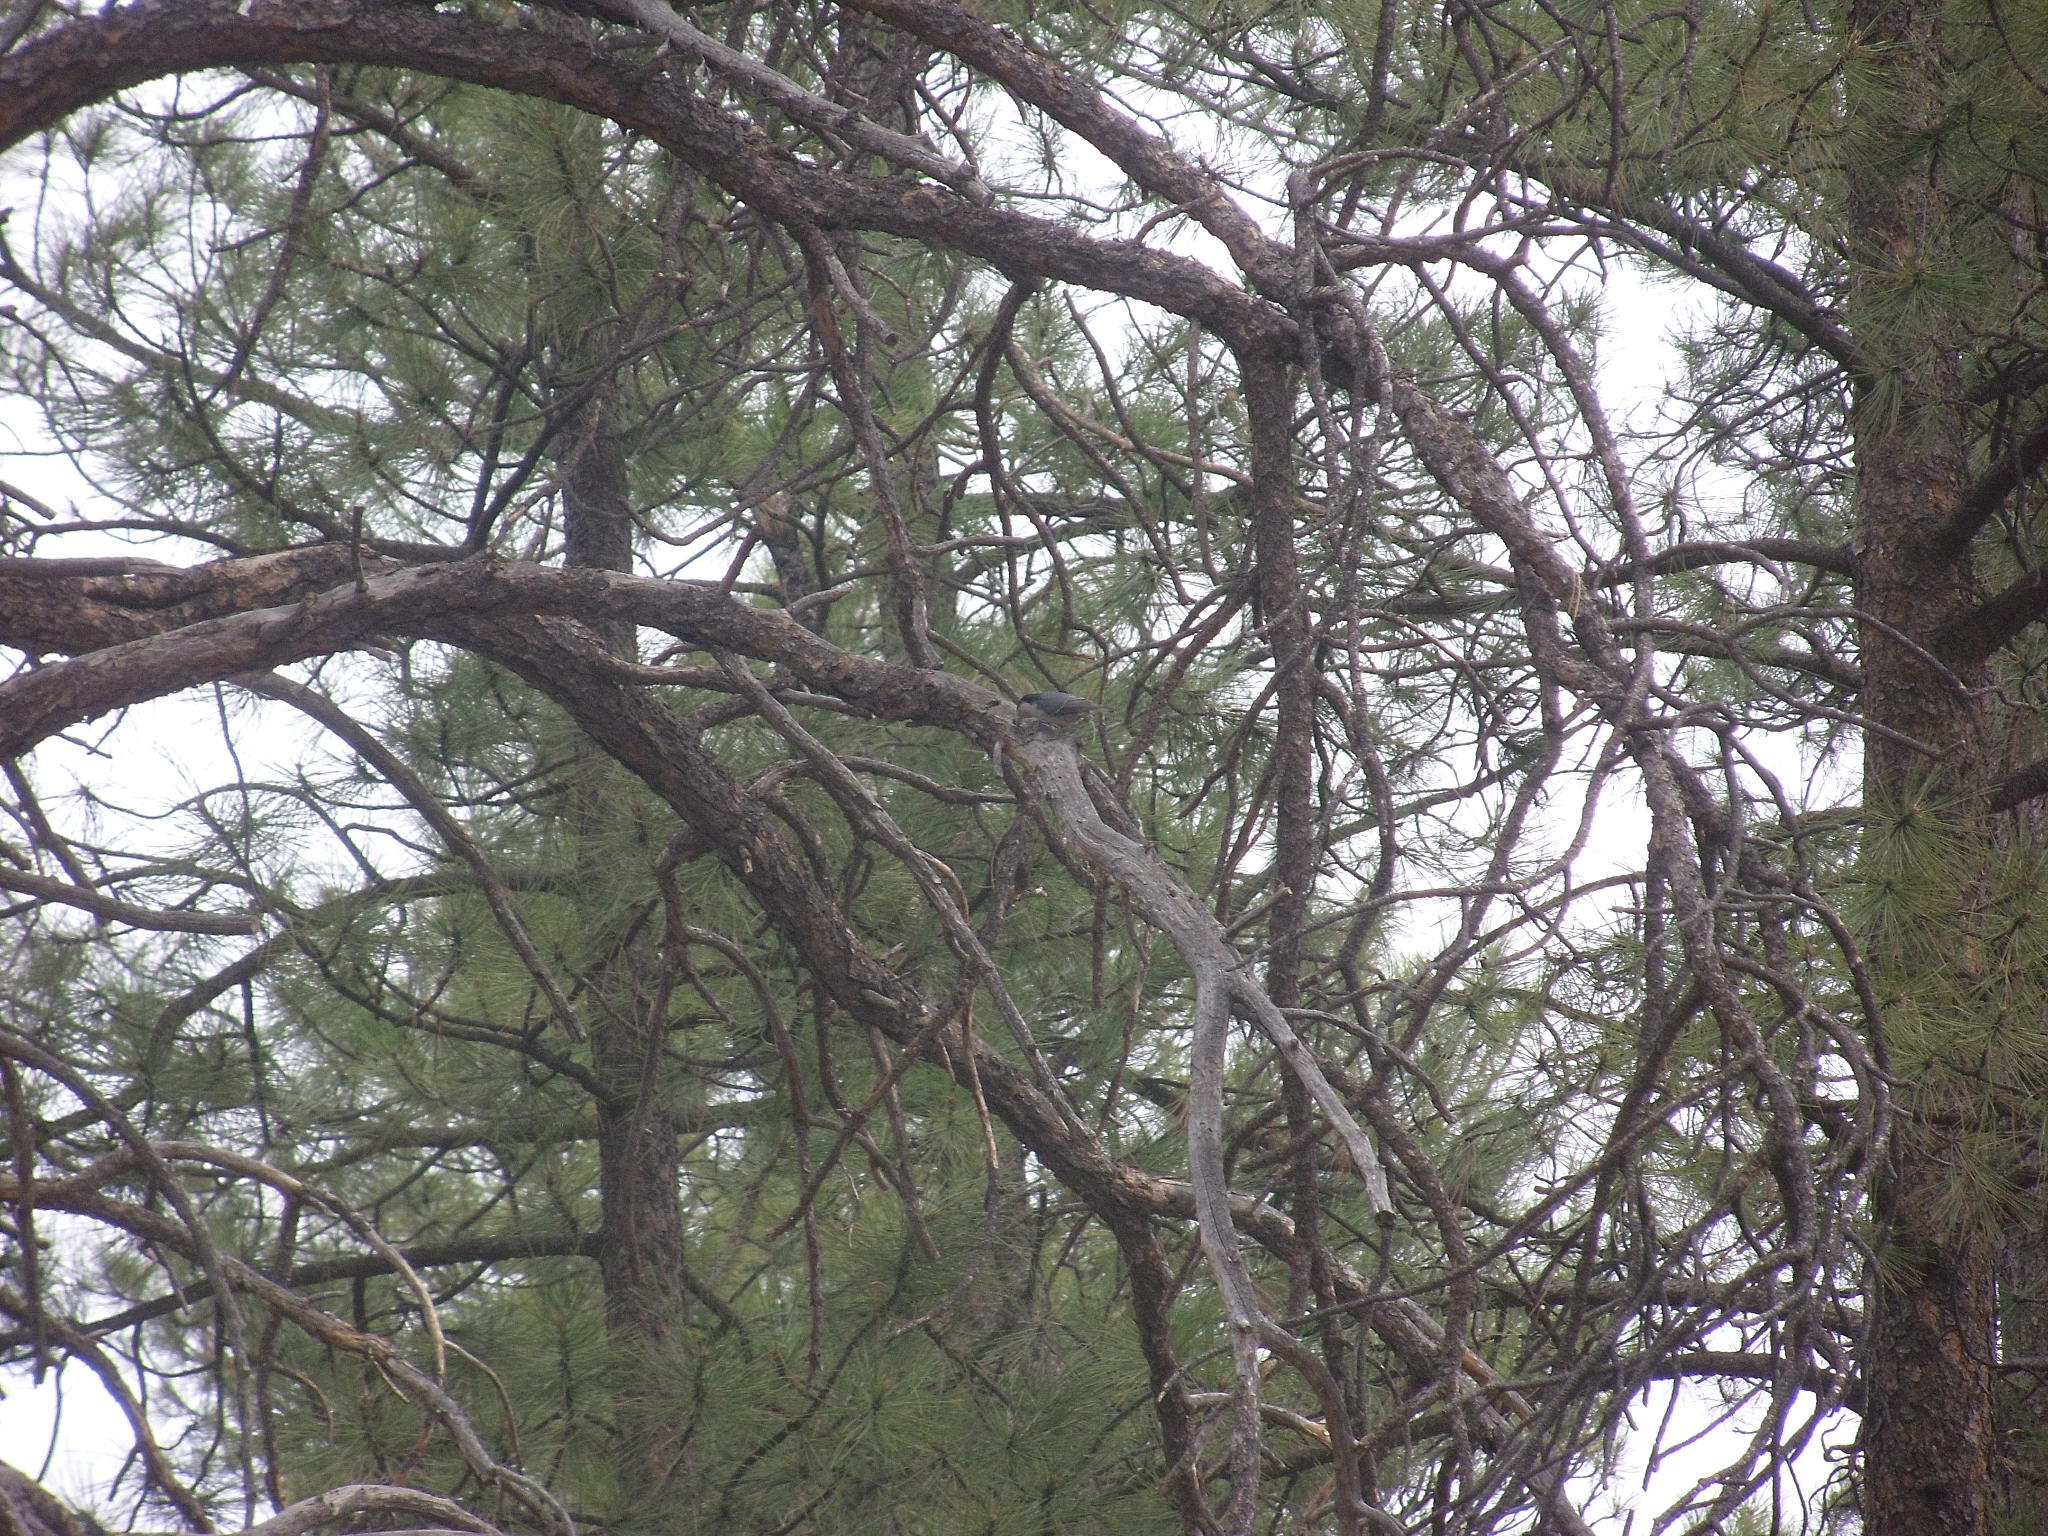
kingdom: Animalia
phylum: Chordata
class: Aves
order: Passeriformes
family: Sittidae
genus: Sitta
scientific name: Sitta carolinensis
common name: White-breasted nuthatch
